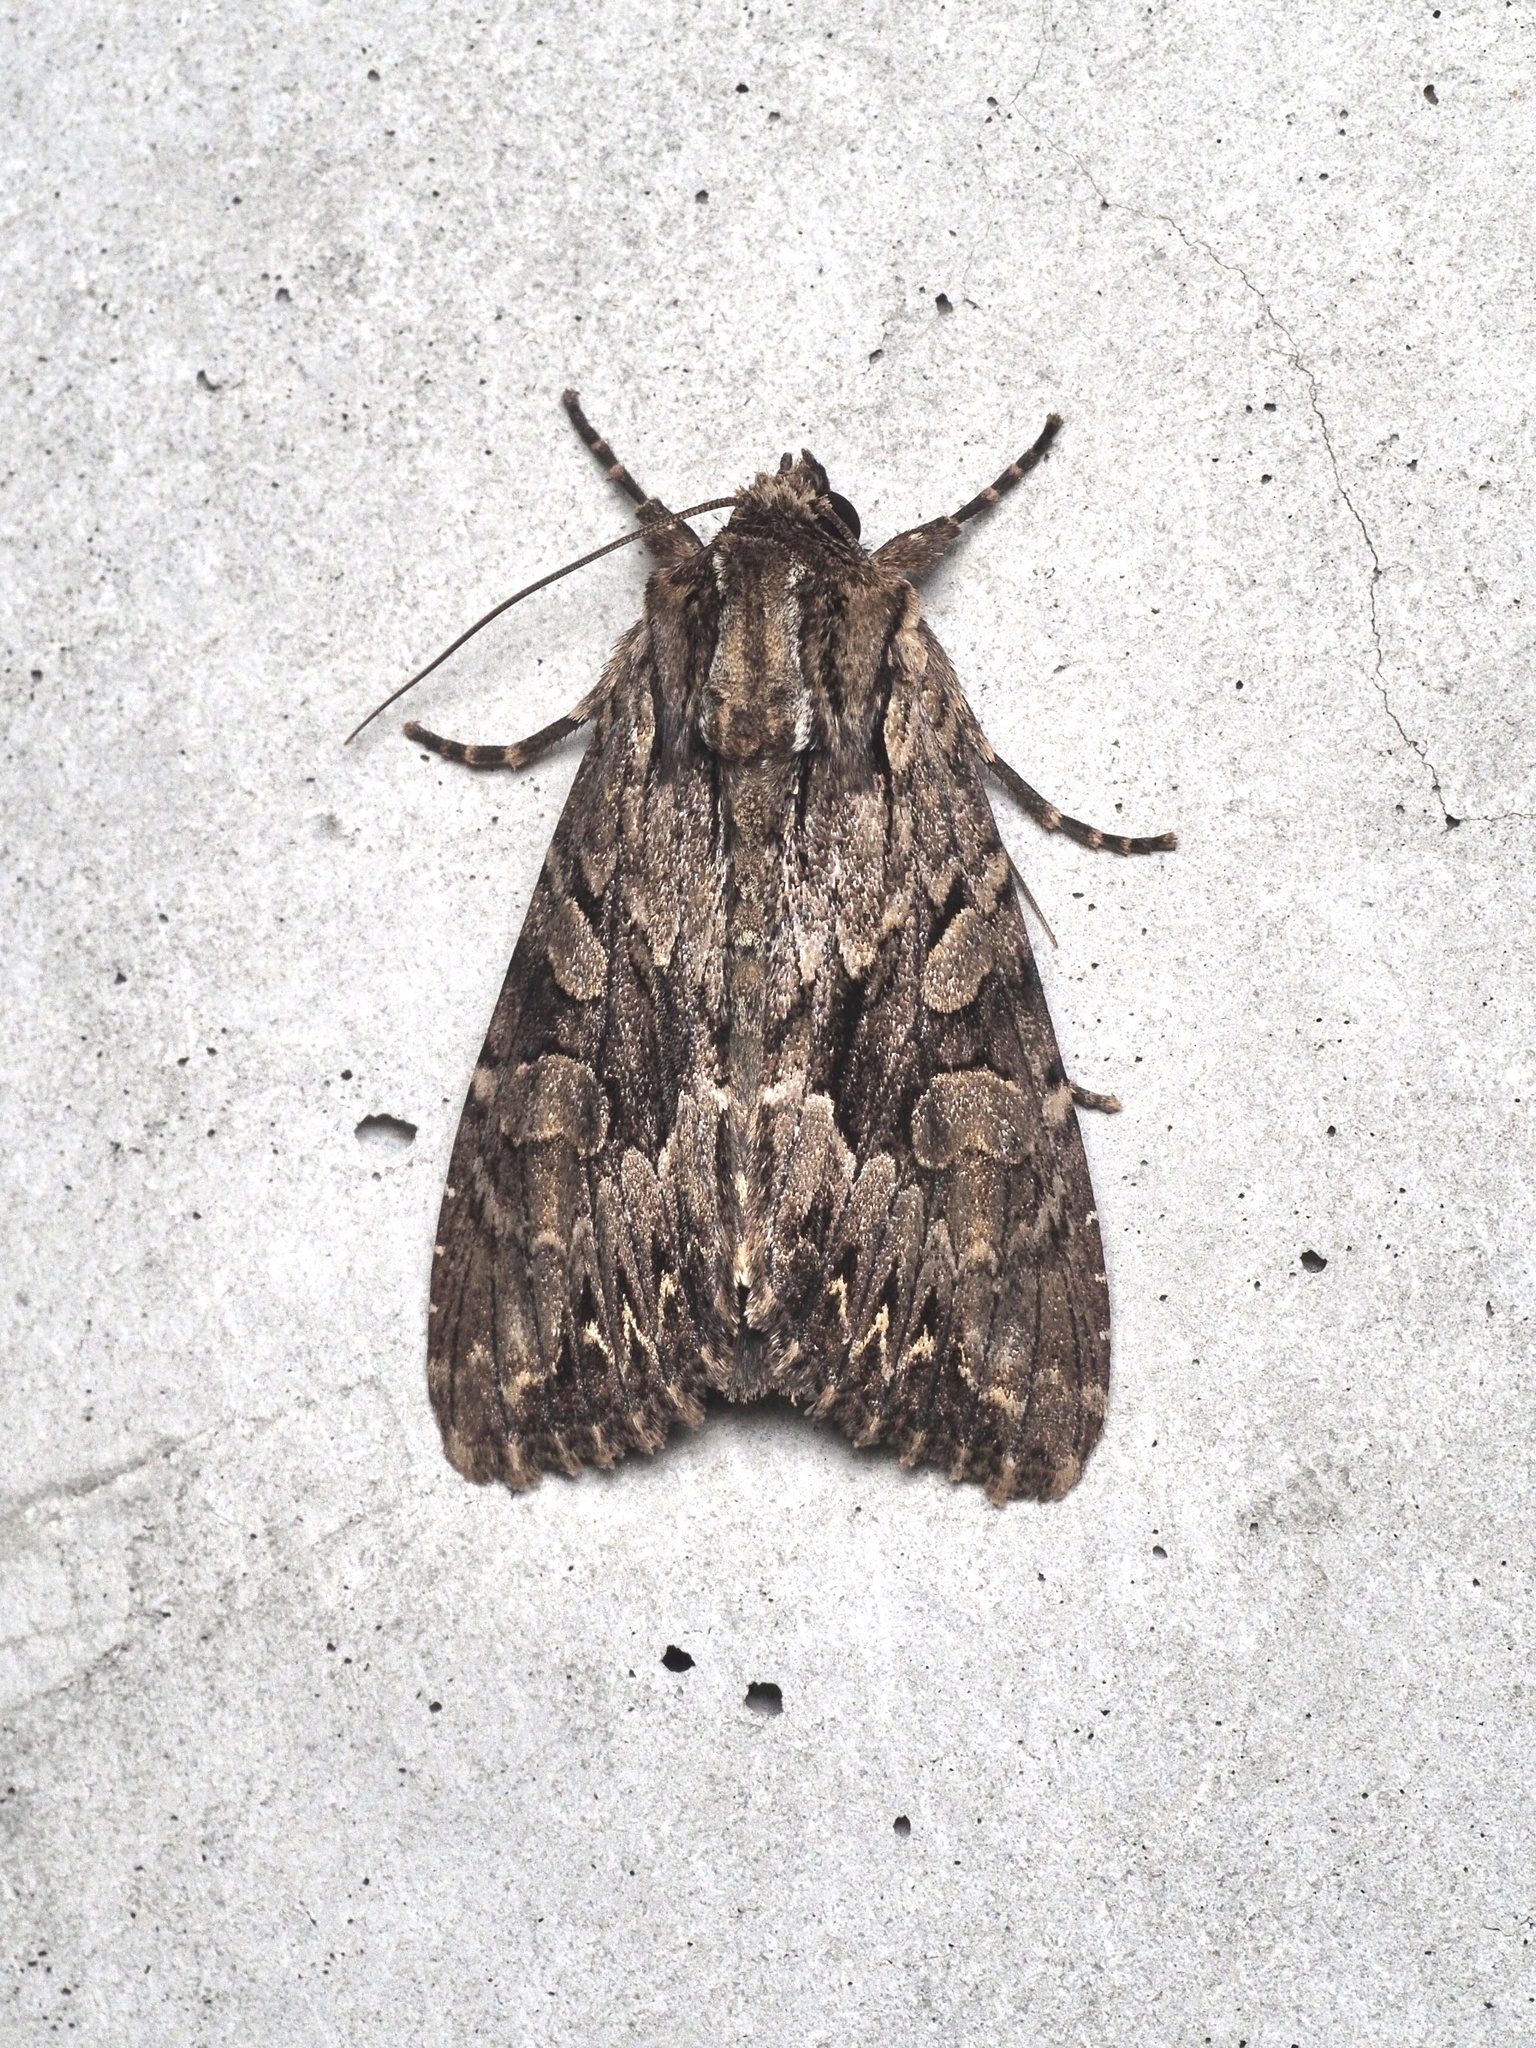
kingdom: Animalia
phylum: Arthropoda
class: Insecta
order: Lepidoptera
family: Noctuidae
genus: Apamea
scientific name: Apamea monoglypha
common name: Dark arches
